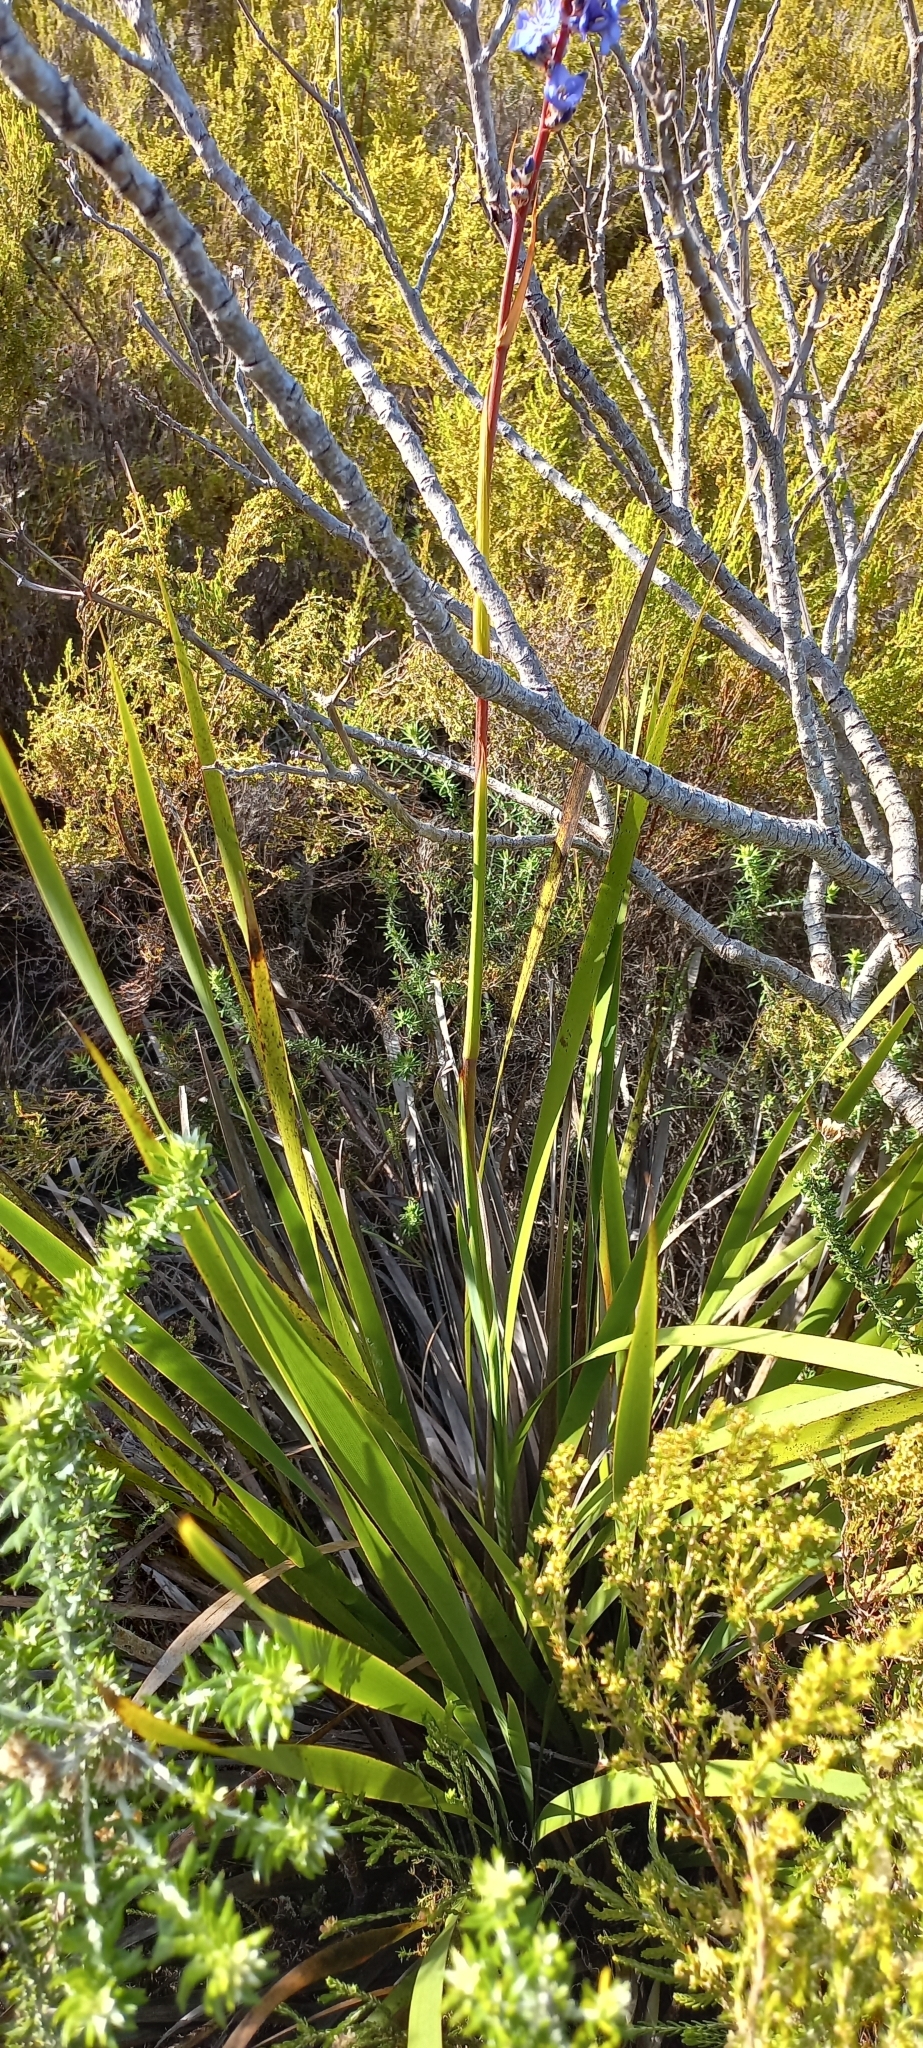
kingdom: Plantae
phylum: Tracheophyta
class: Liliopsida
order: Asparagales
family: Iridaceae
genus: Aristea
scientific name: Aristea capitata
